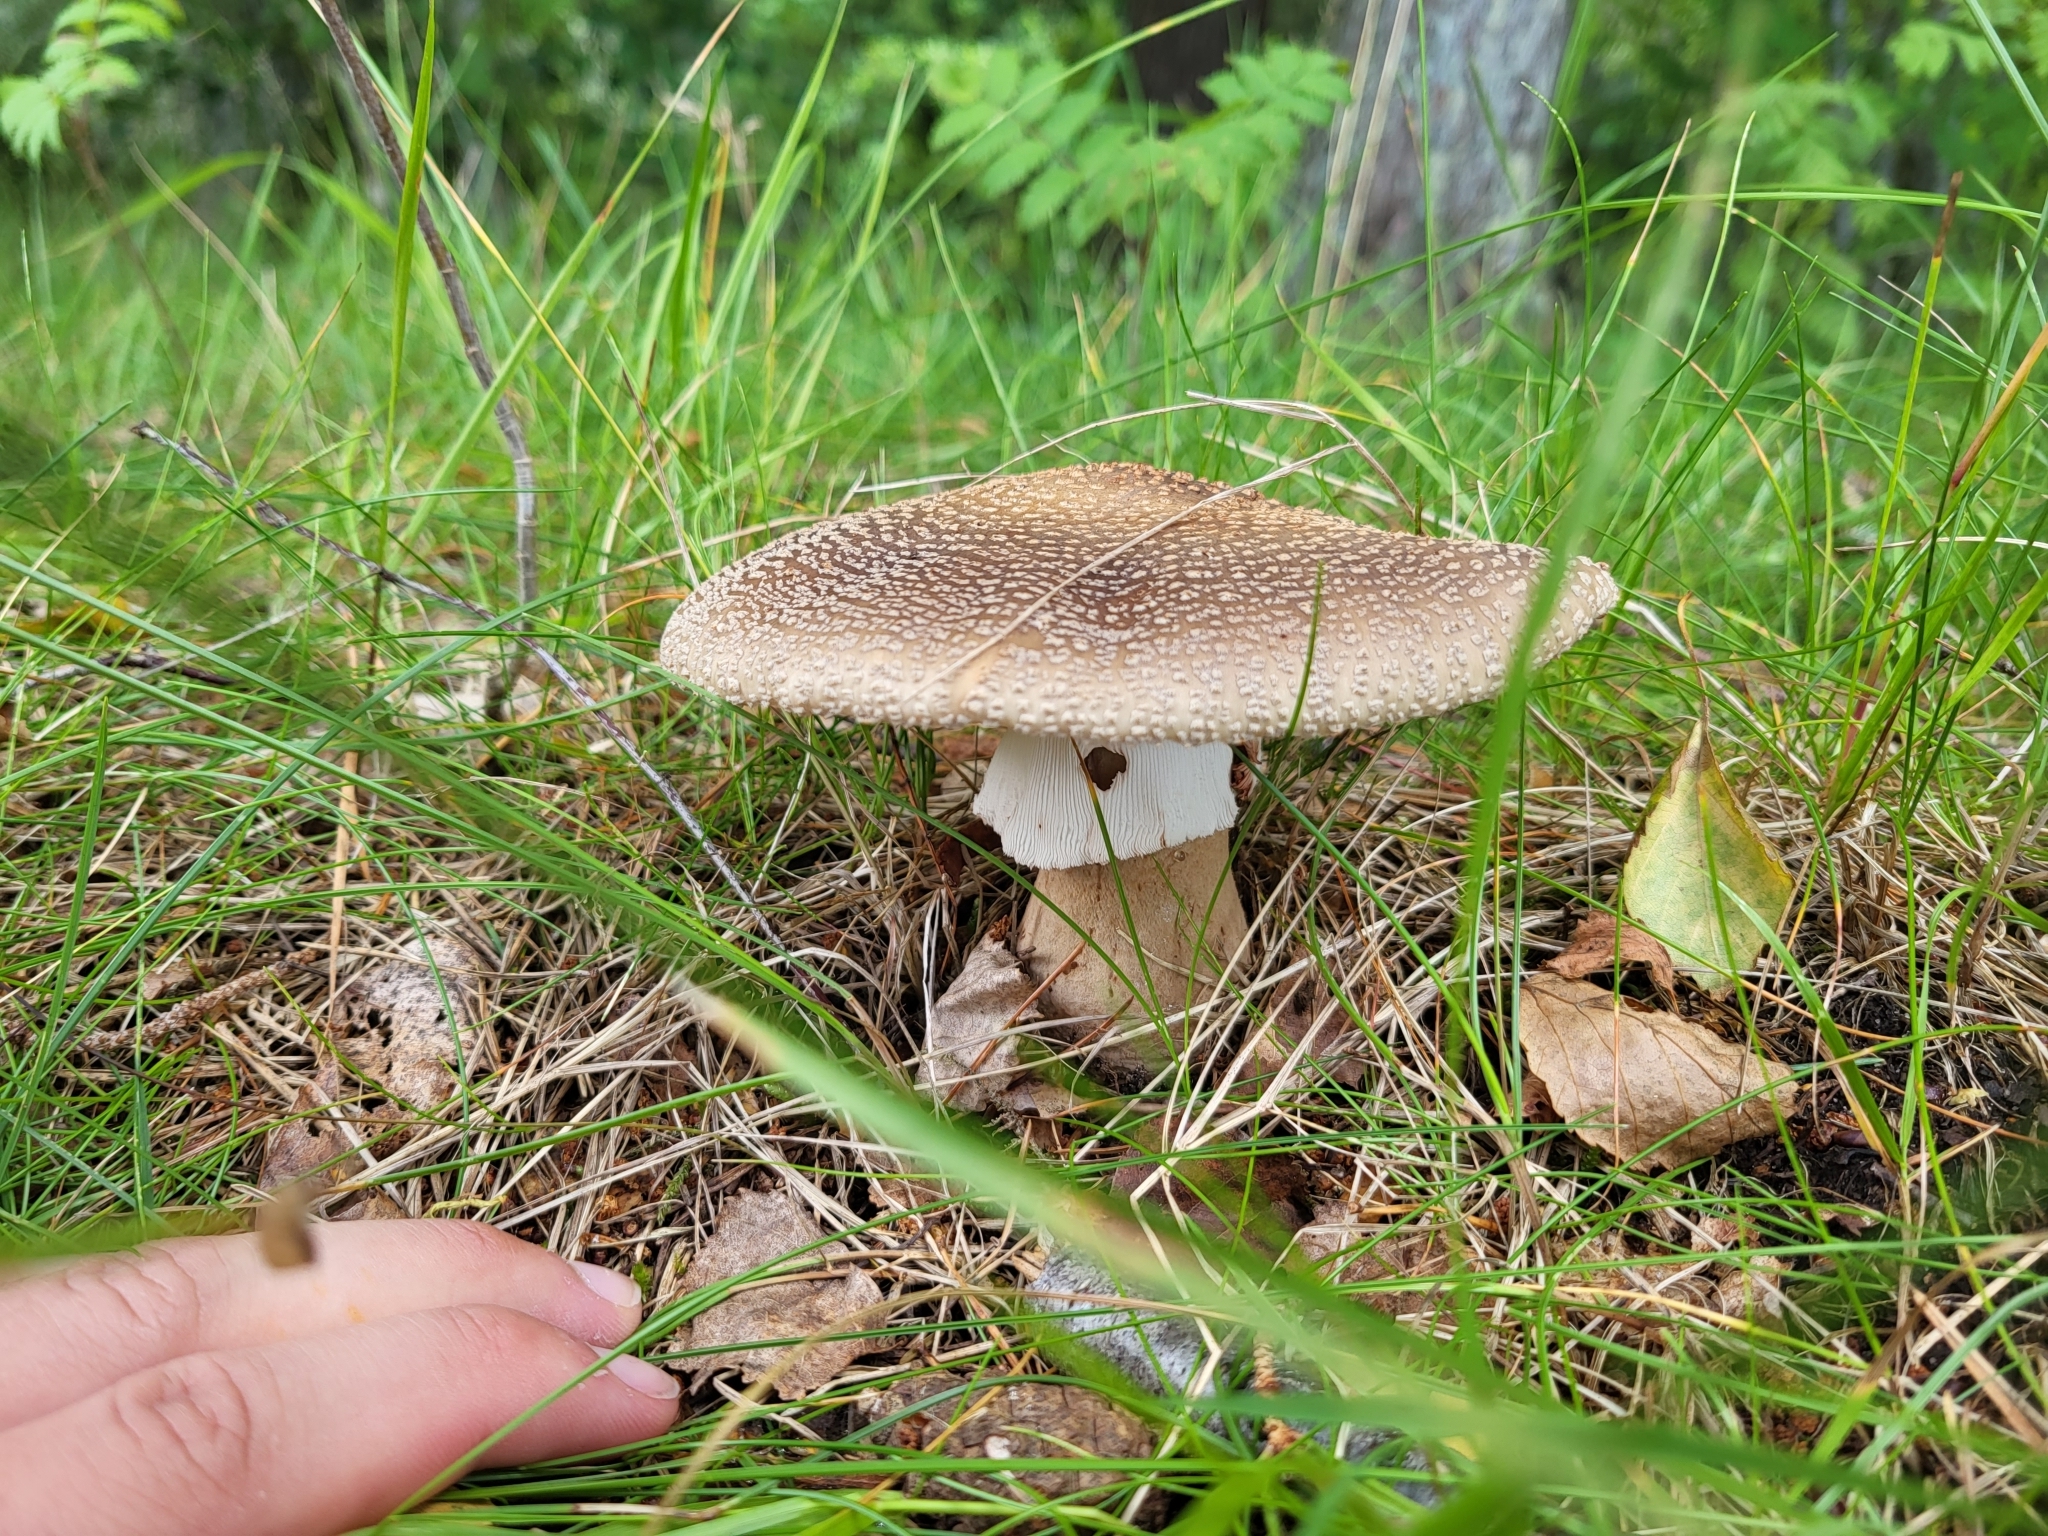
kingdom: Fungi
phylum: Basidiomycota
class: Agaricomycetes
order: Agaricales
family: Amanitaceae
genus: Amanita
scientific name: Amanita rubescens
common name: Blusher
